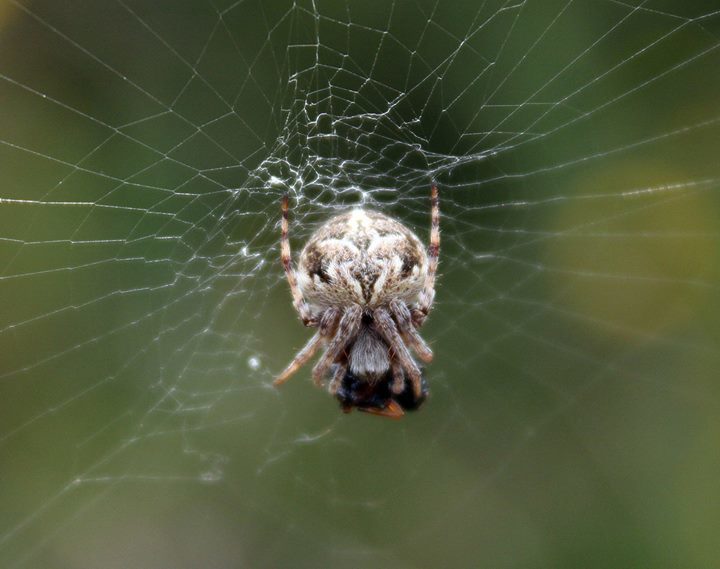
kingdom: Animalia
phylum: Arthropoda
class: Arachnida
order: Araneae
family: Araneidae
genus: Agalenatea
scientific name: Agalenatea redii
